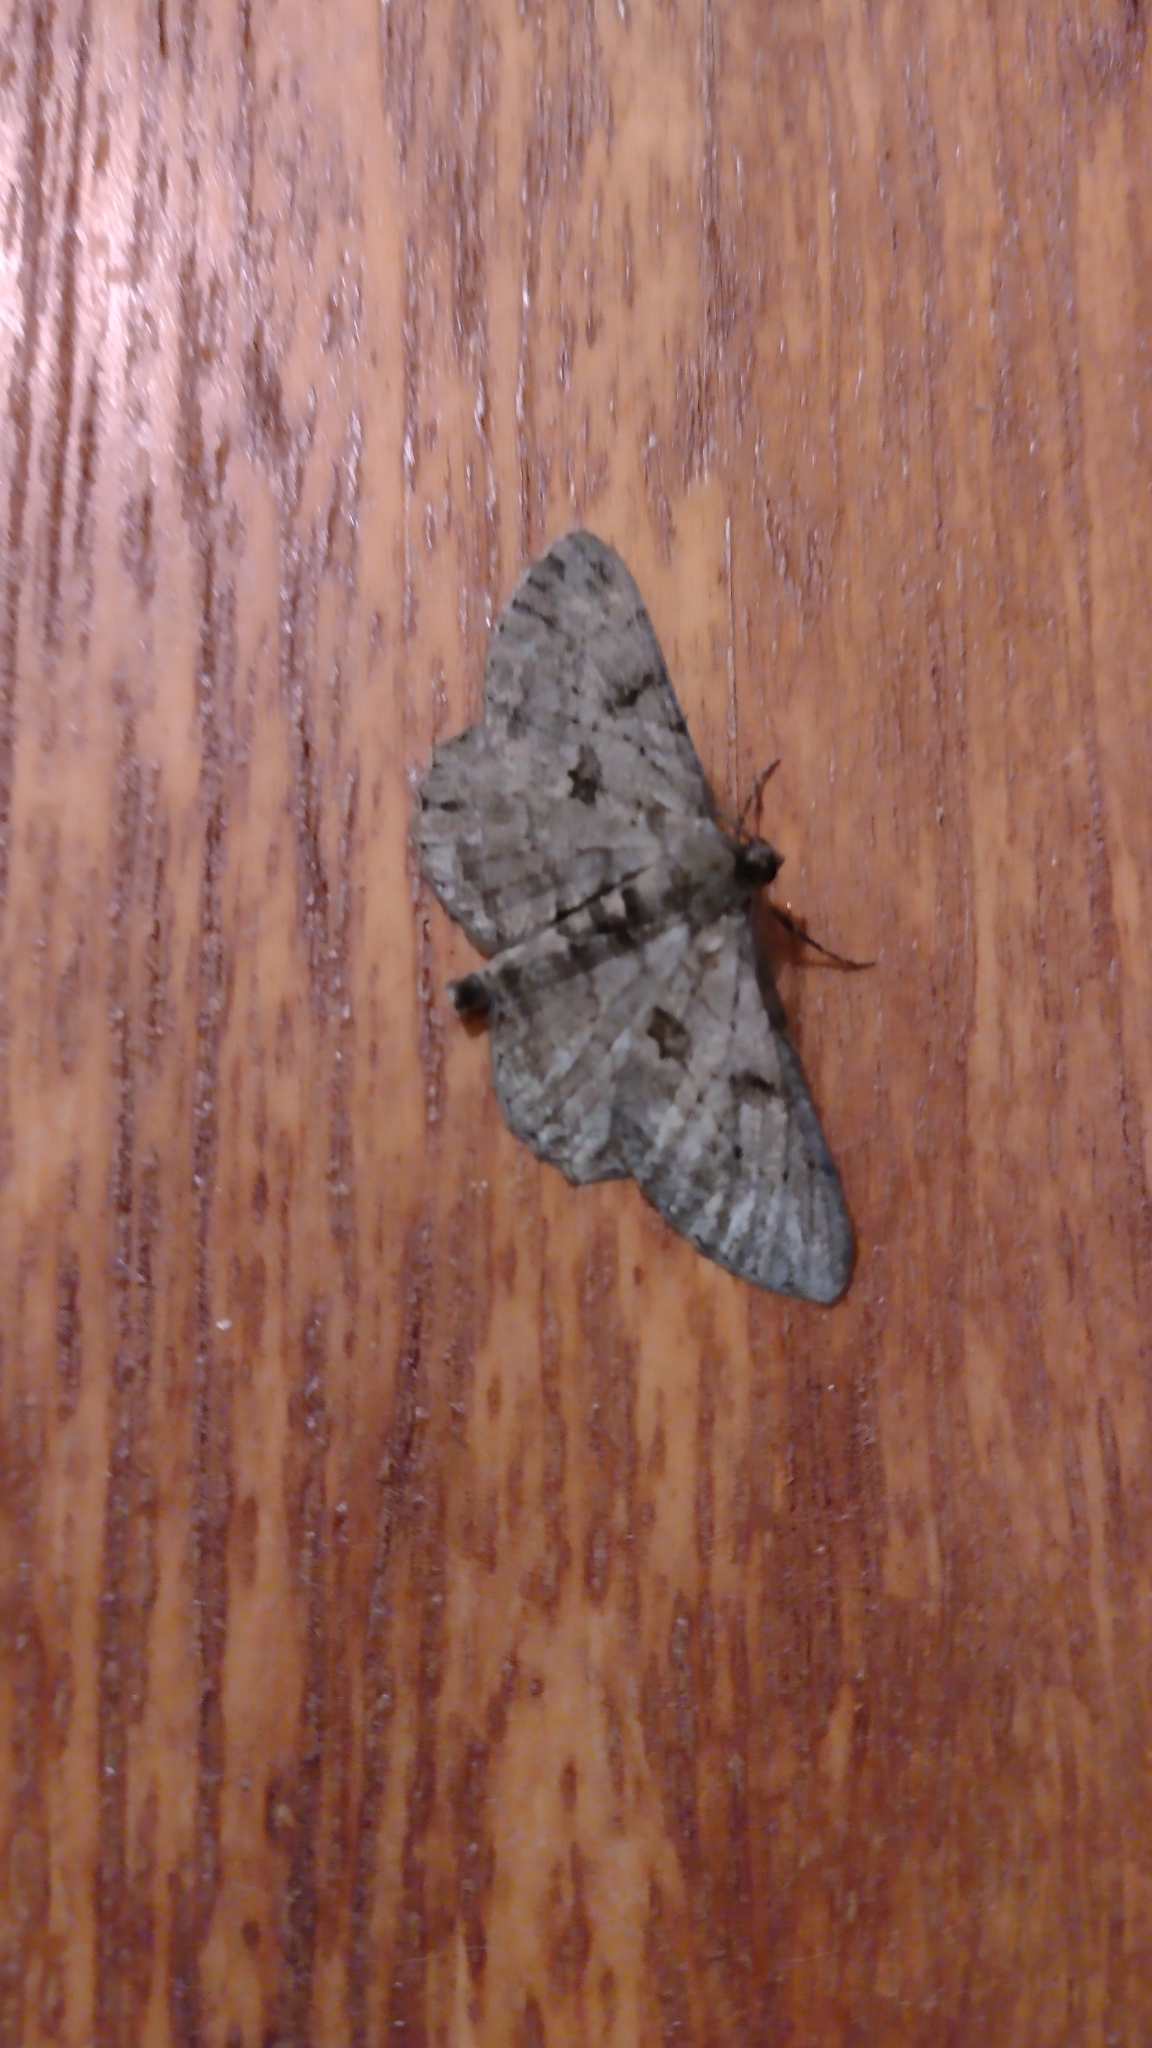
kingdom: Animalia
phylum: Arthropoda
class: Insecta
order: Lepidoptera
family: Geometridae
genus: Peribatodes
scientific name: Peribatodes rhomboidaria
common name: Willow beauty
